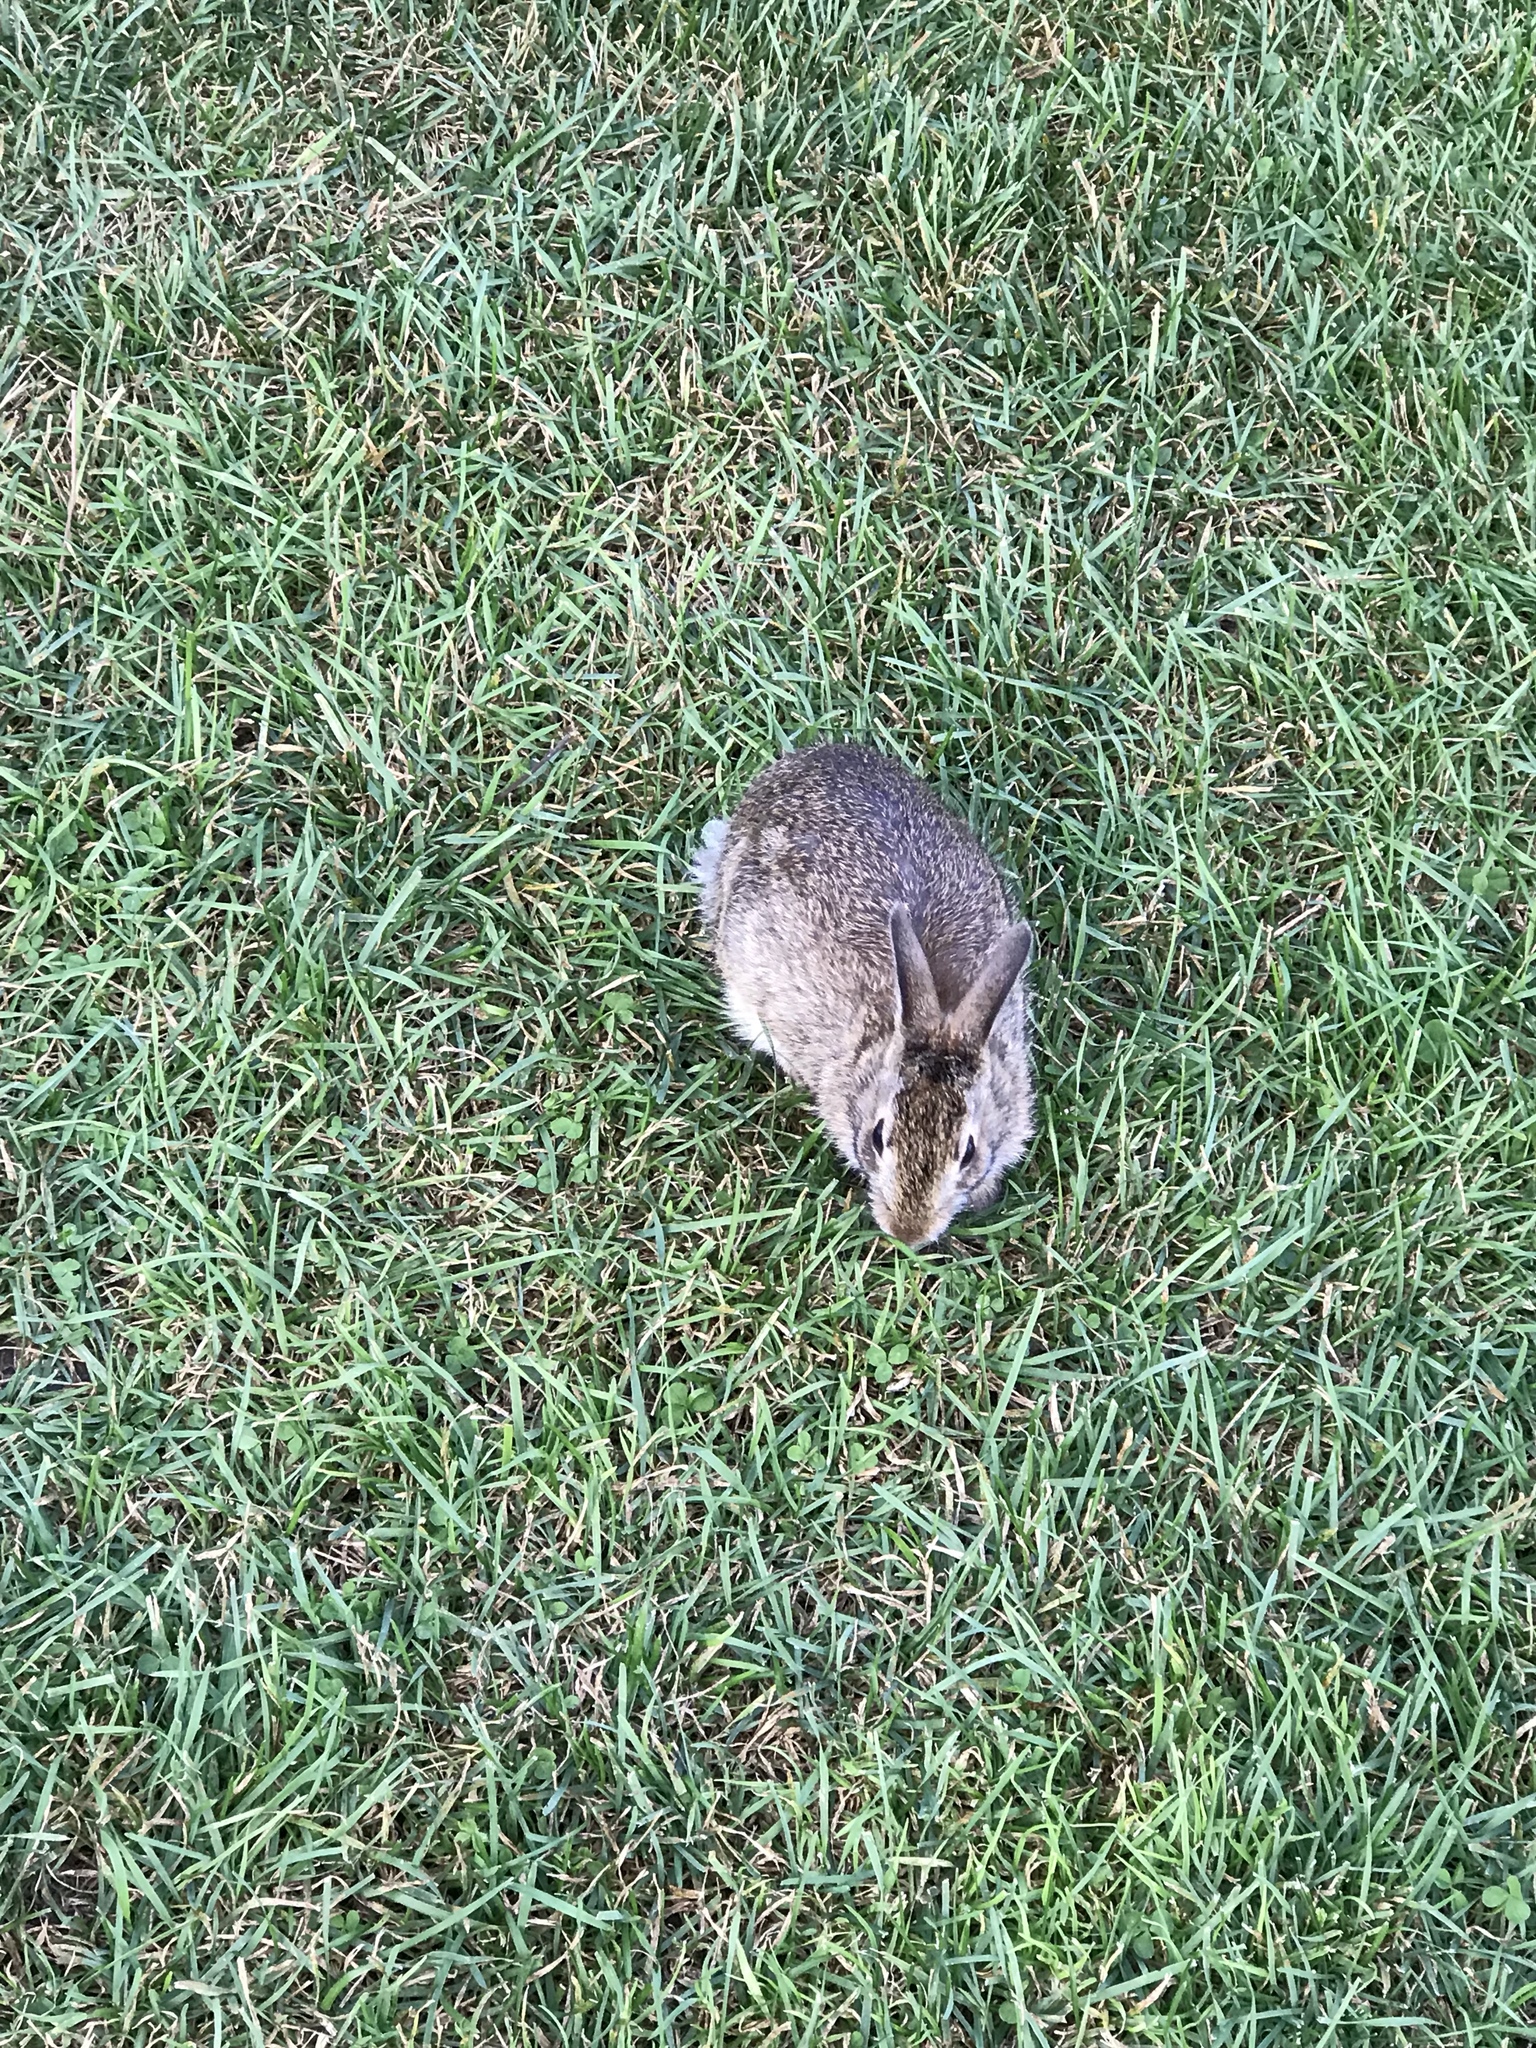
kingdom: Animalia
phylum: Chordata
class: Mammalia
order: Lagomorpha
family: Leporidae
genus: Sylvilagus
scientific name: Sylvilagus floridanus
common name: Eastern cottontail
